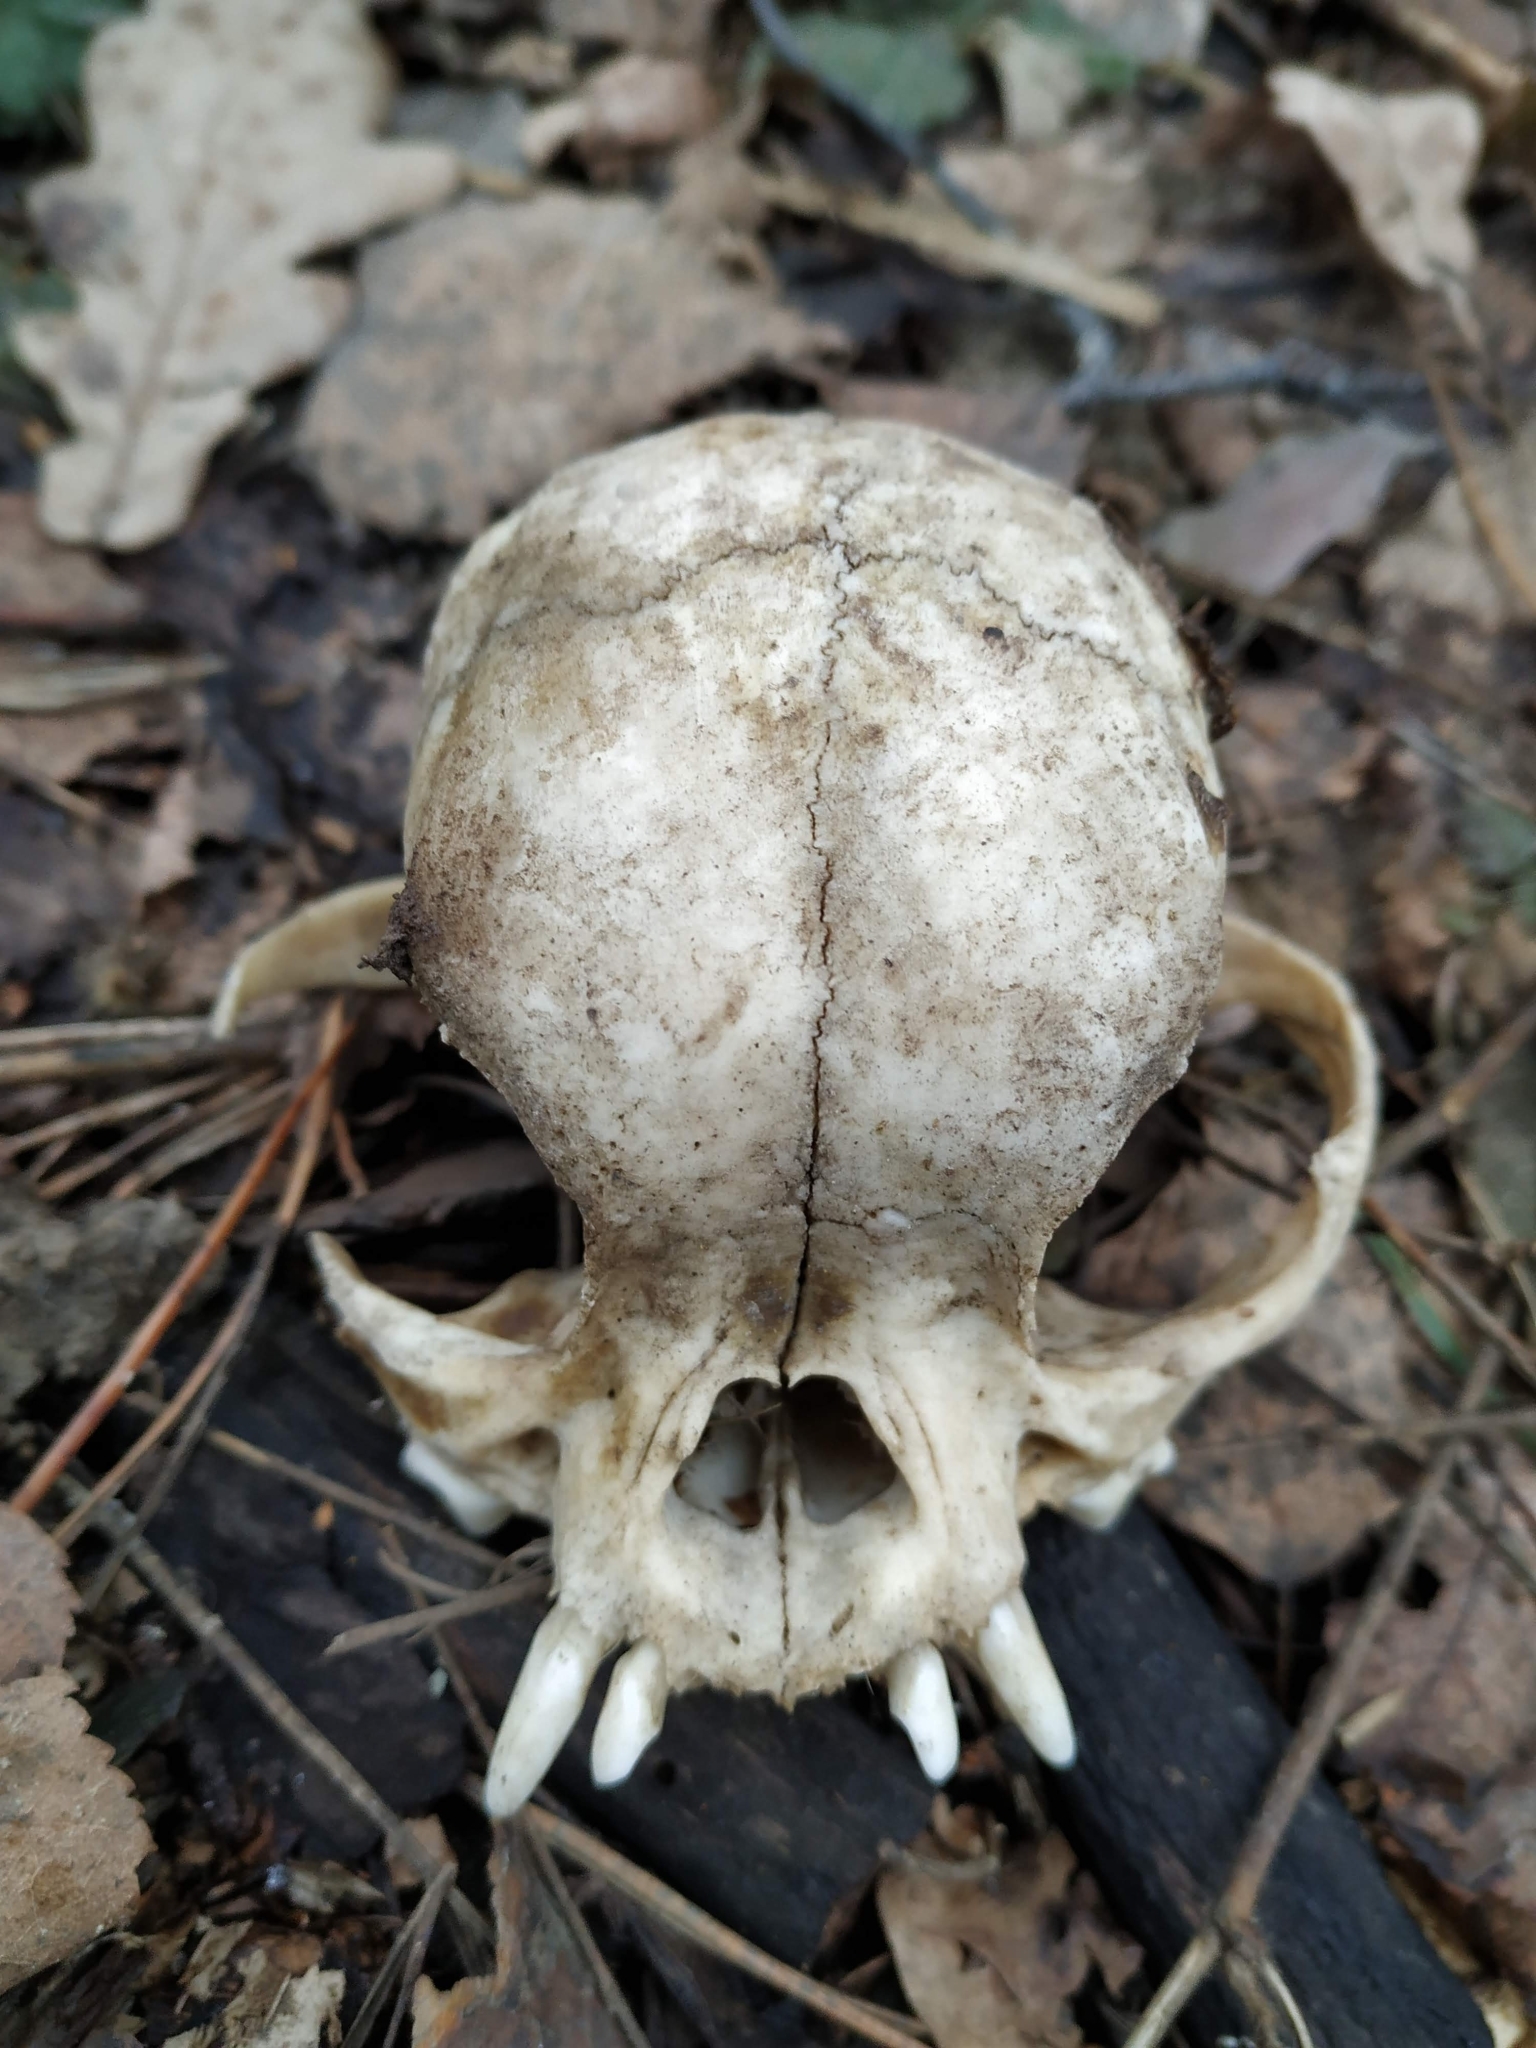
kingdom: Animalia
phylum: Chordata
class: Mammalia
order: Carnivora
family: Canidae
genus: Canis
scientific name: Canis lupus
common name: Gray wolf
